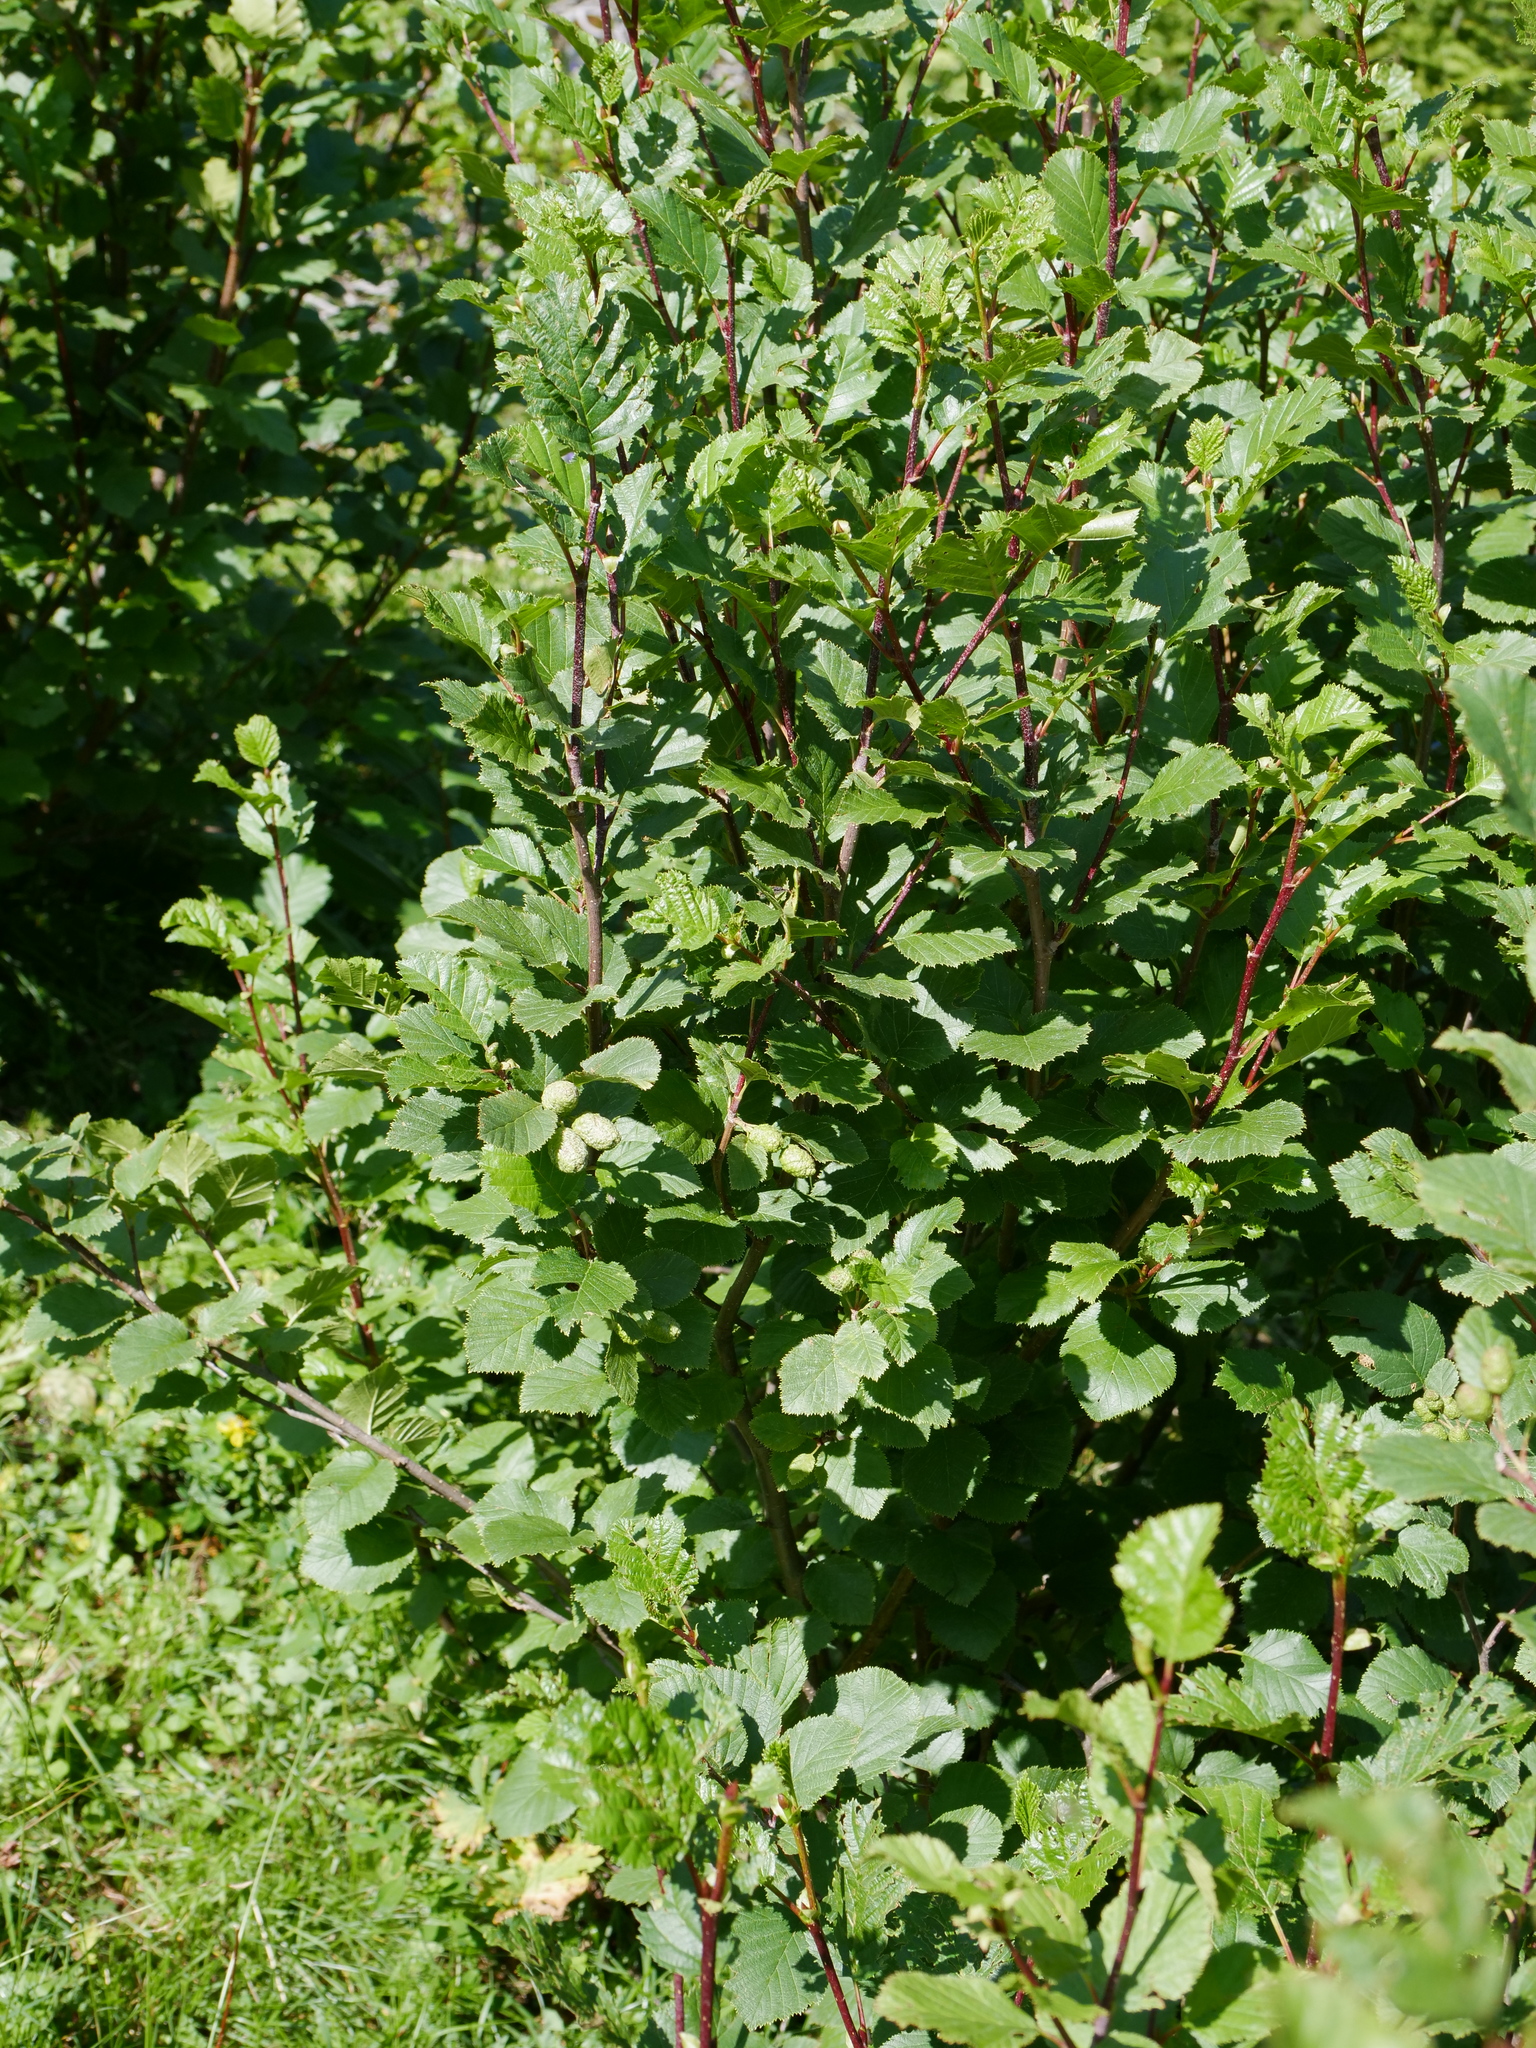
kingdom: Plantae
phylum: Tracheophyta
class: Magnoliopsida
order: Fagales
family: Betulaceae
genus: Alnus
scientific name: Alnus alnobetula
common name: Green alder
